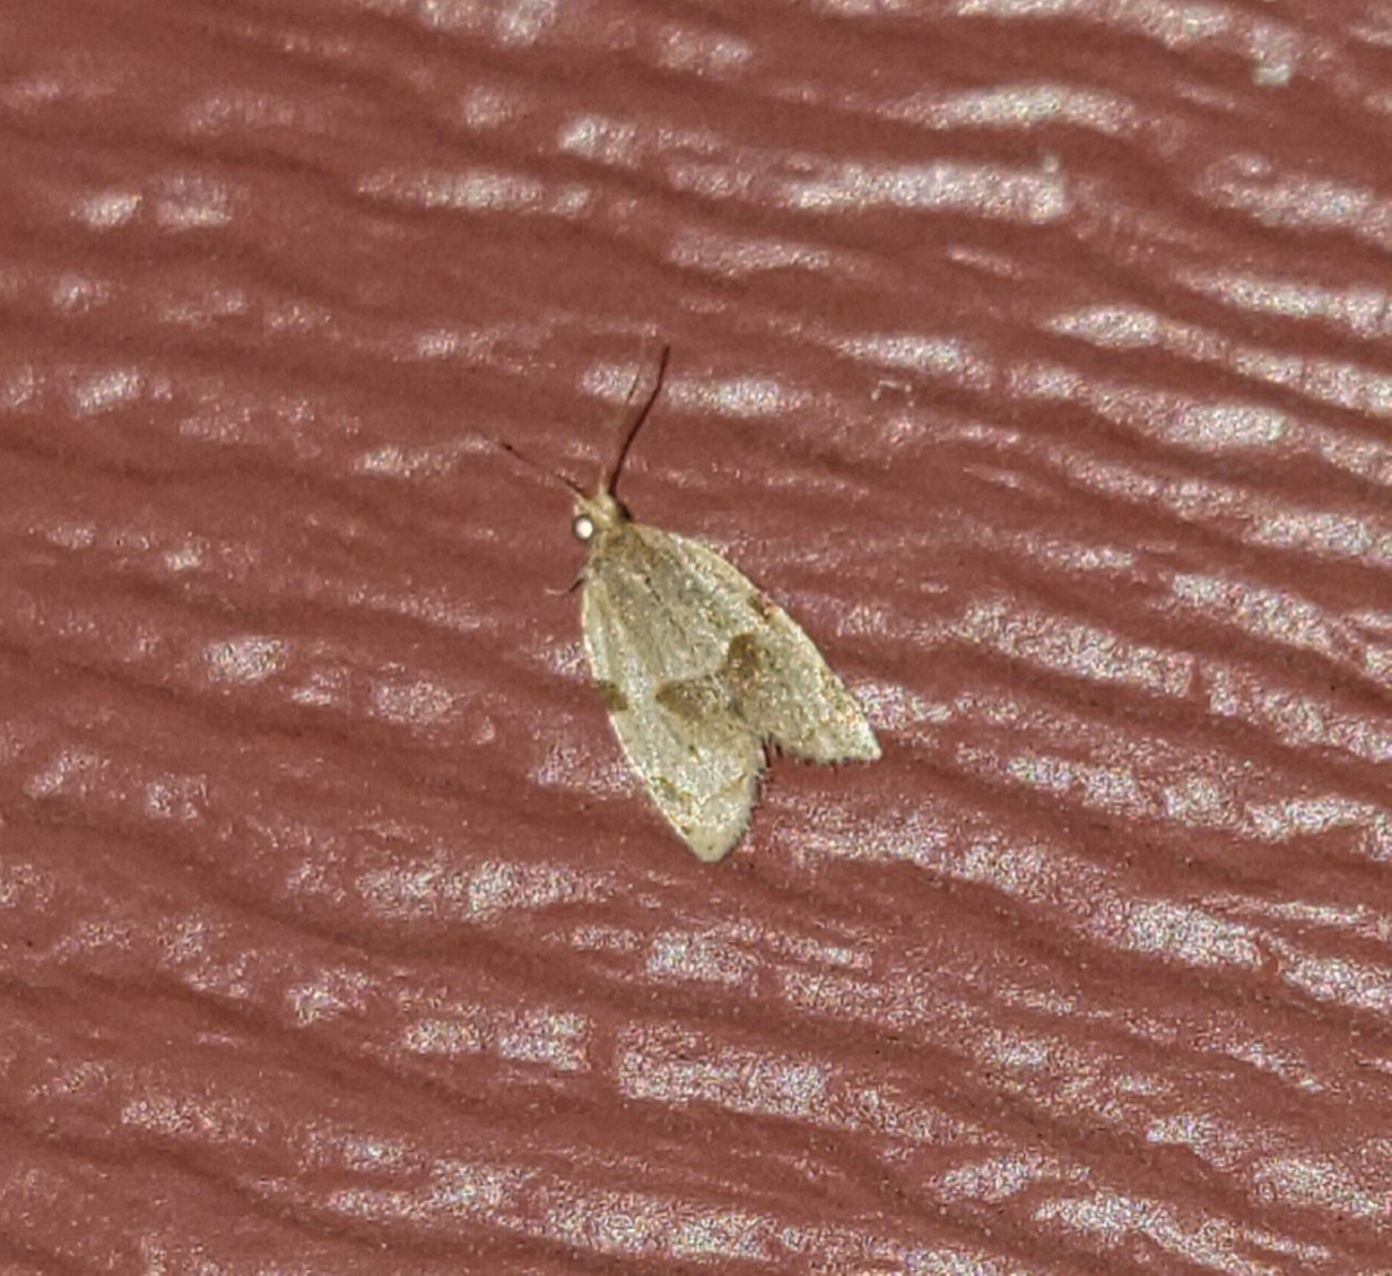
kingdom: Animalia
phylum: Arthropoda
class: Insecta
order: Lepidoptera
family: Tortricidae
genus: Clepsis
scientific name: Clepsis virescana
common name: Greenish apple moth
